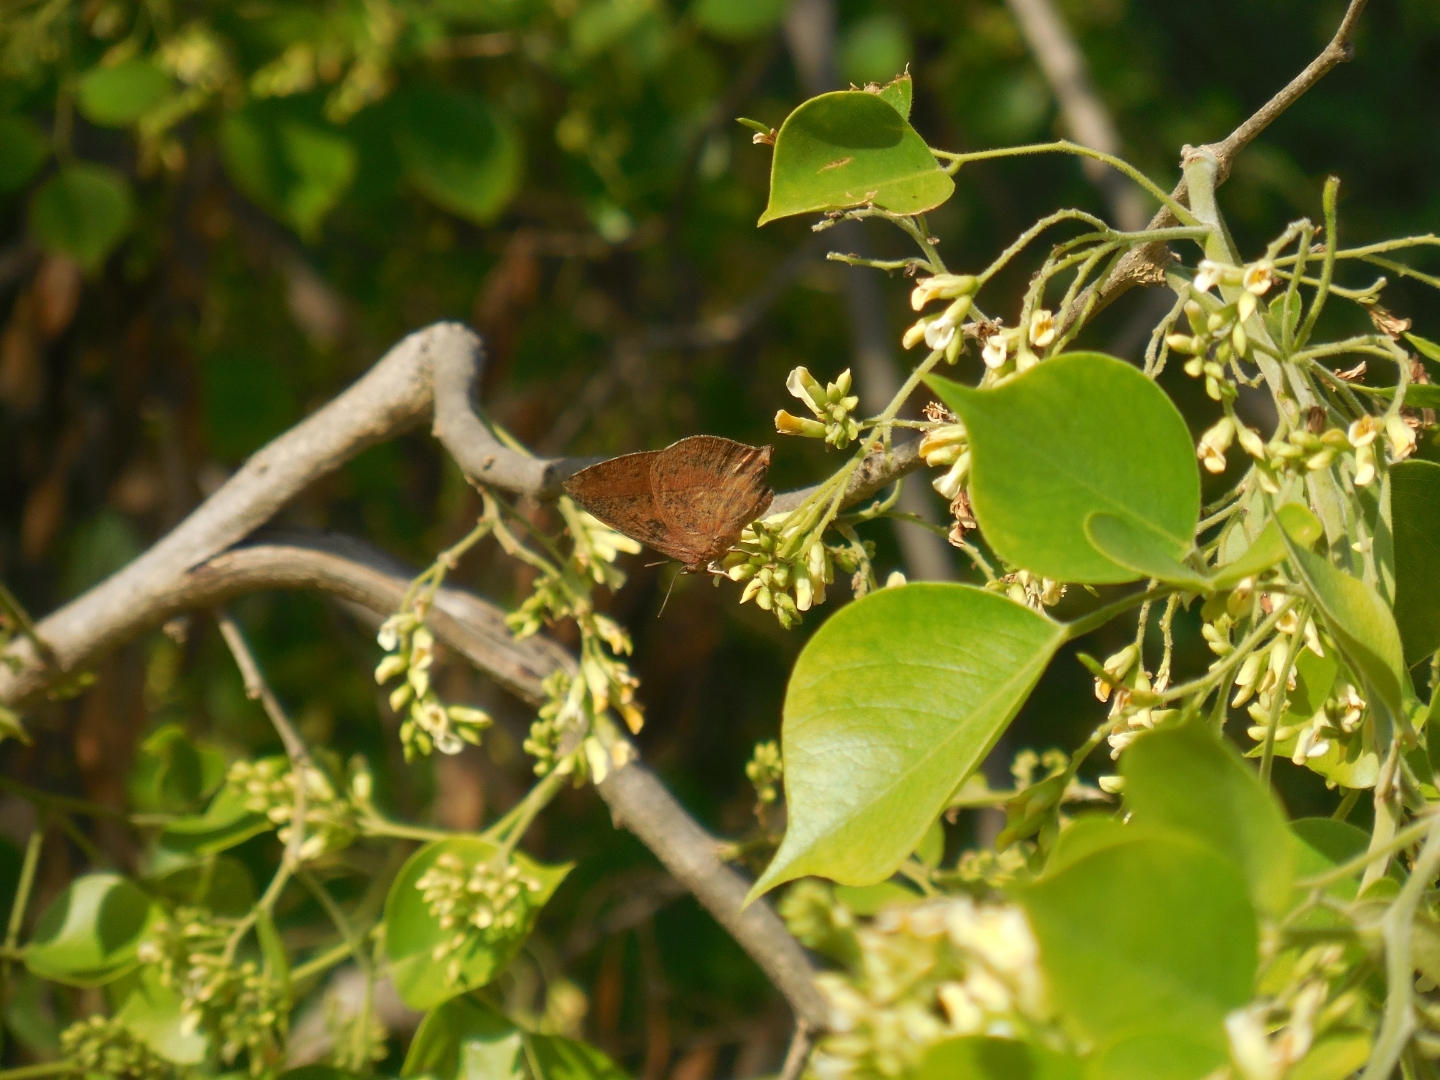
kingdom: Animalia
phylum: Arthropoda
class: Insecta
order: Lepidoptera
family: Lycaenidae
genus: Amblypodia
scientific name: Amblypodia anita
